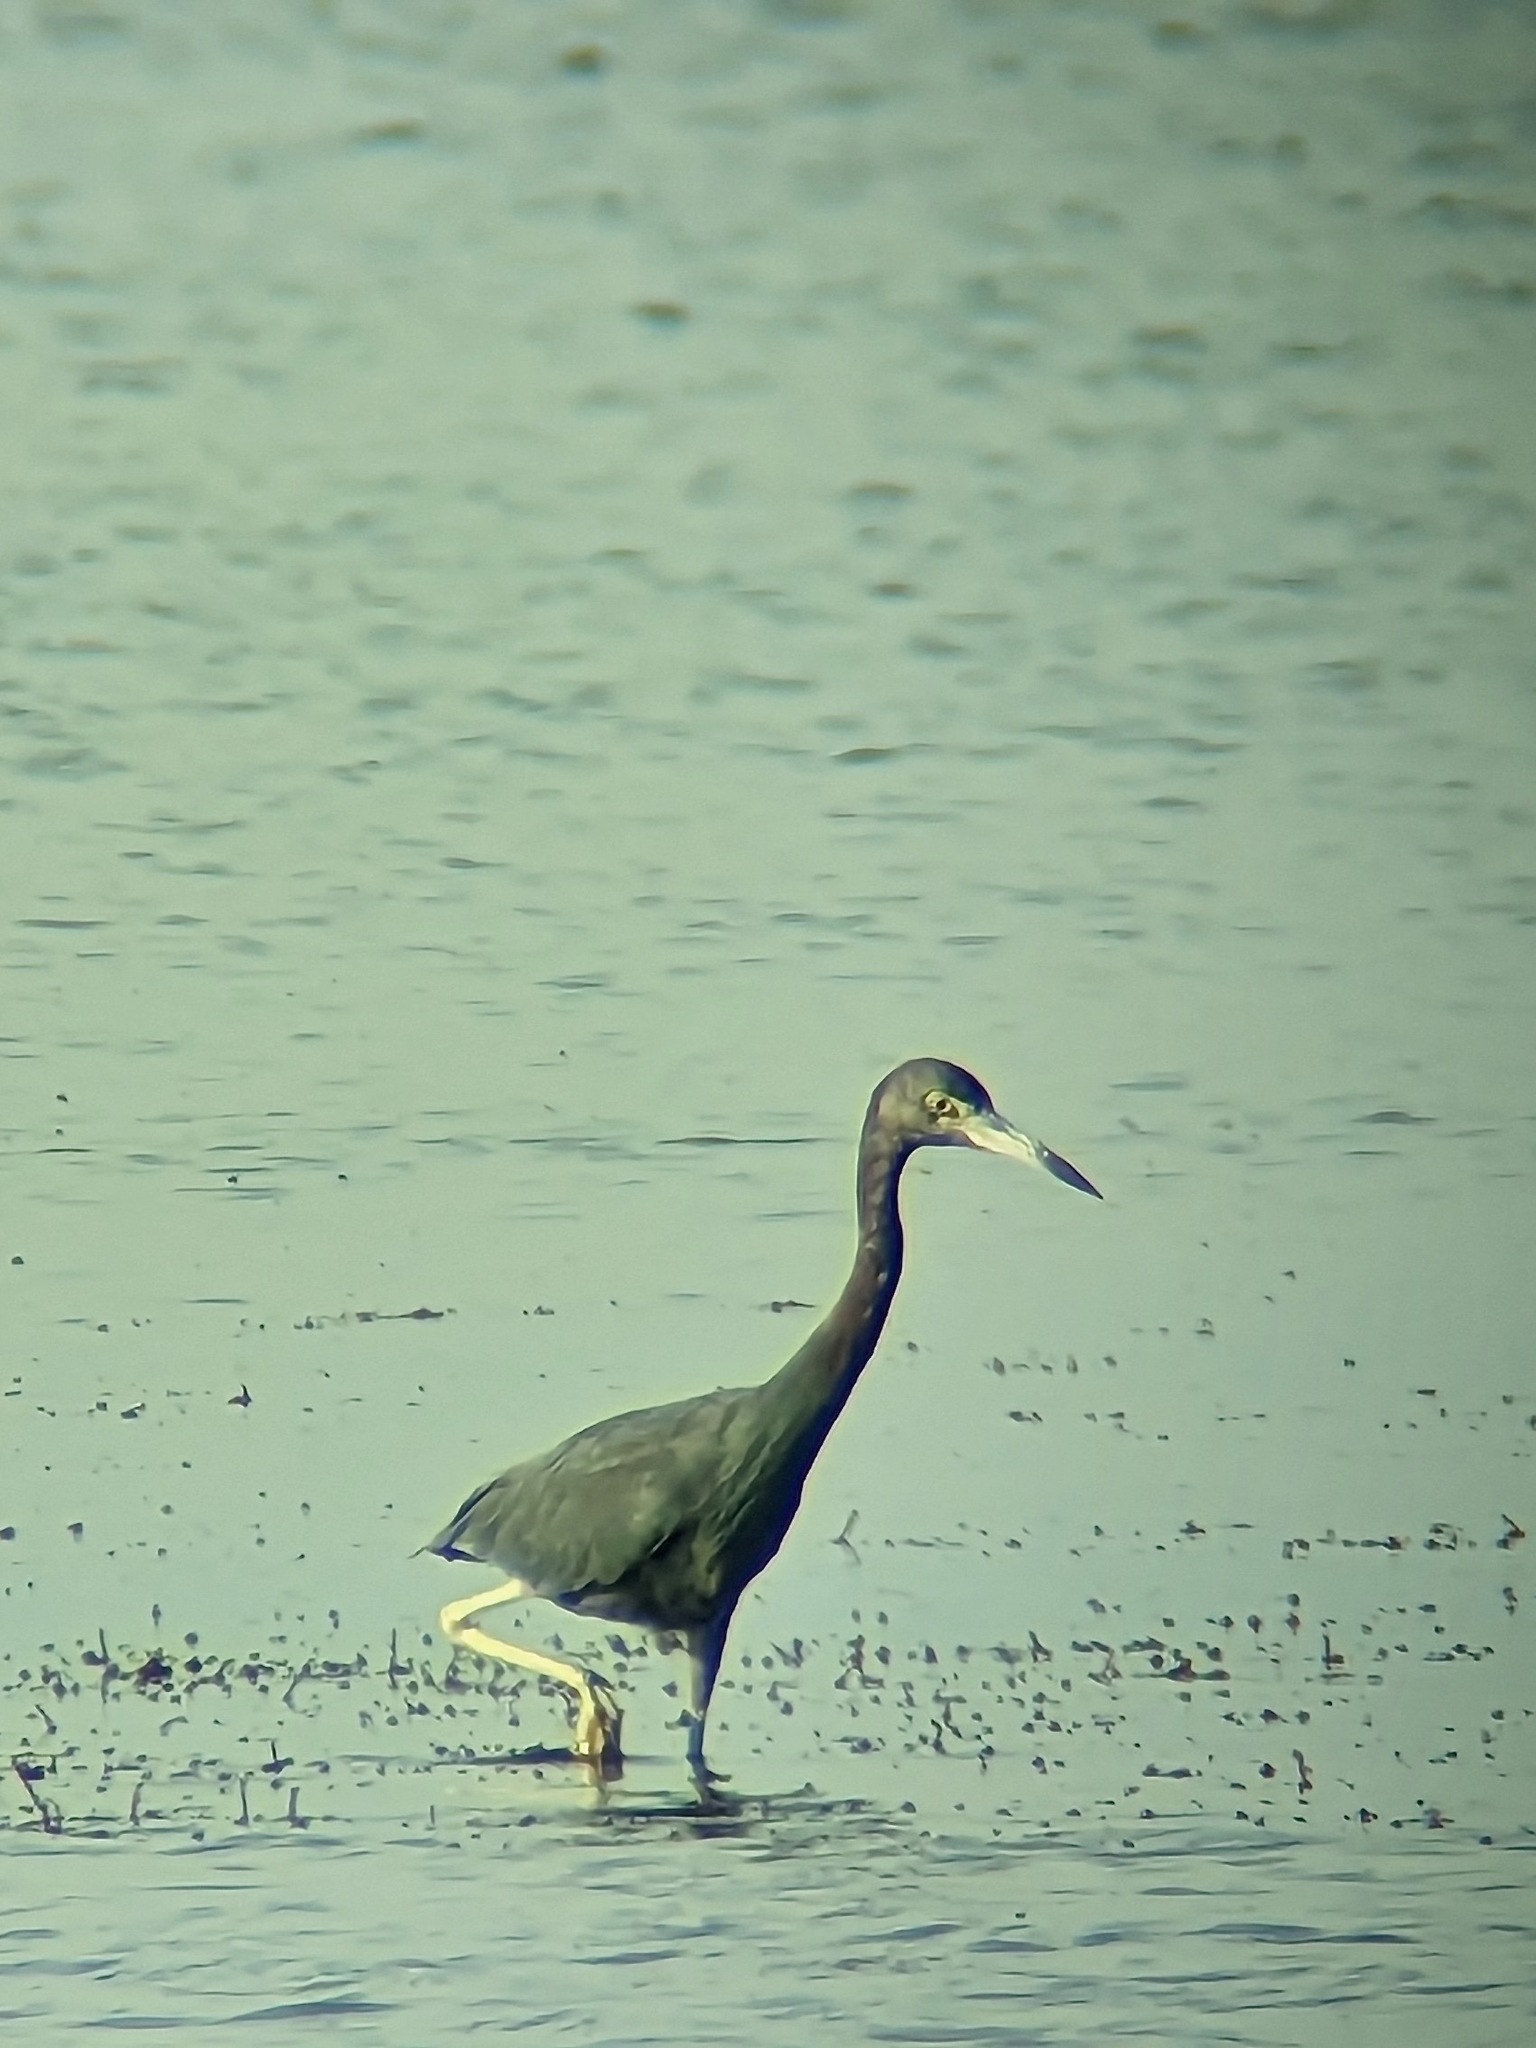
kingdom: Animalia
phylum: Chordata
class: Aves
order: Pelecaniformes
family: Ardeidae
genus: Egretta
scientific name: Egretta caerulea
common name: Little blue heron
